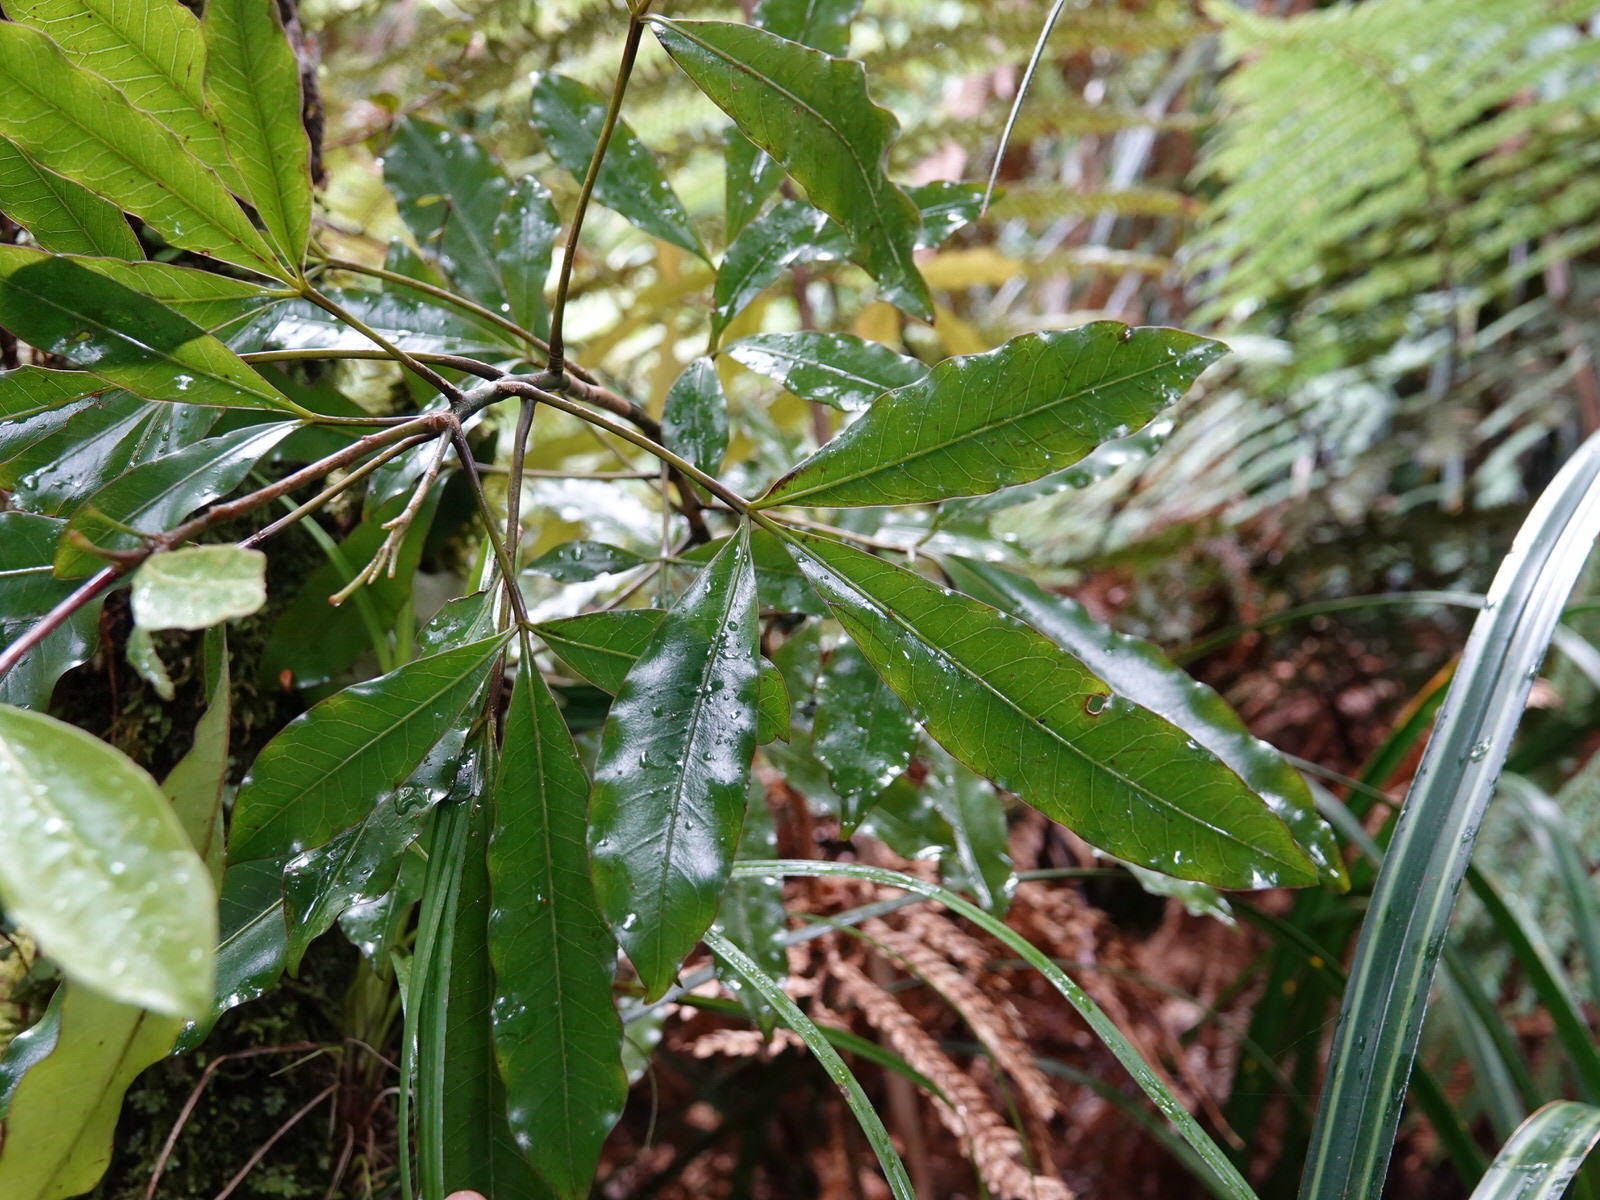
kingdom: Plantae
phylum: Tracheophyta
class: Magnoliopsida
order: Apiales
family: Araliaceae
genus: Raukaua
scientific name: Raukaua edgerleyi
